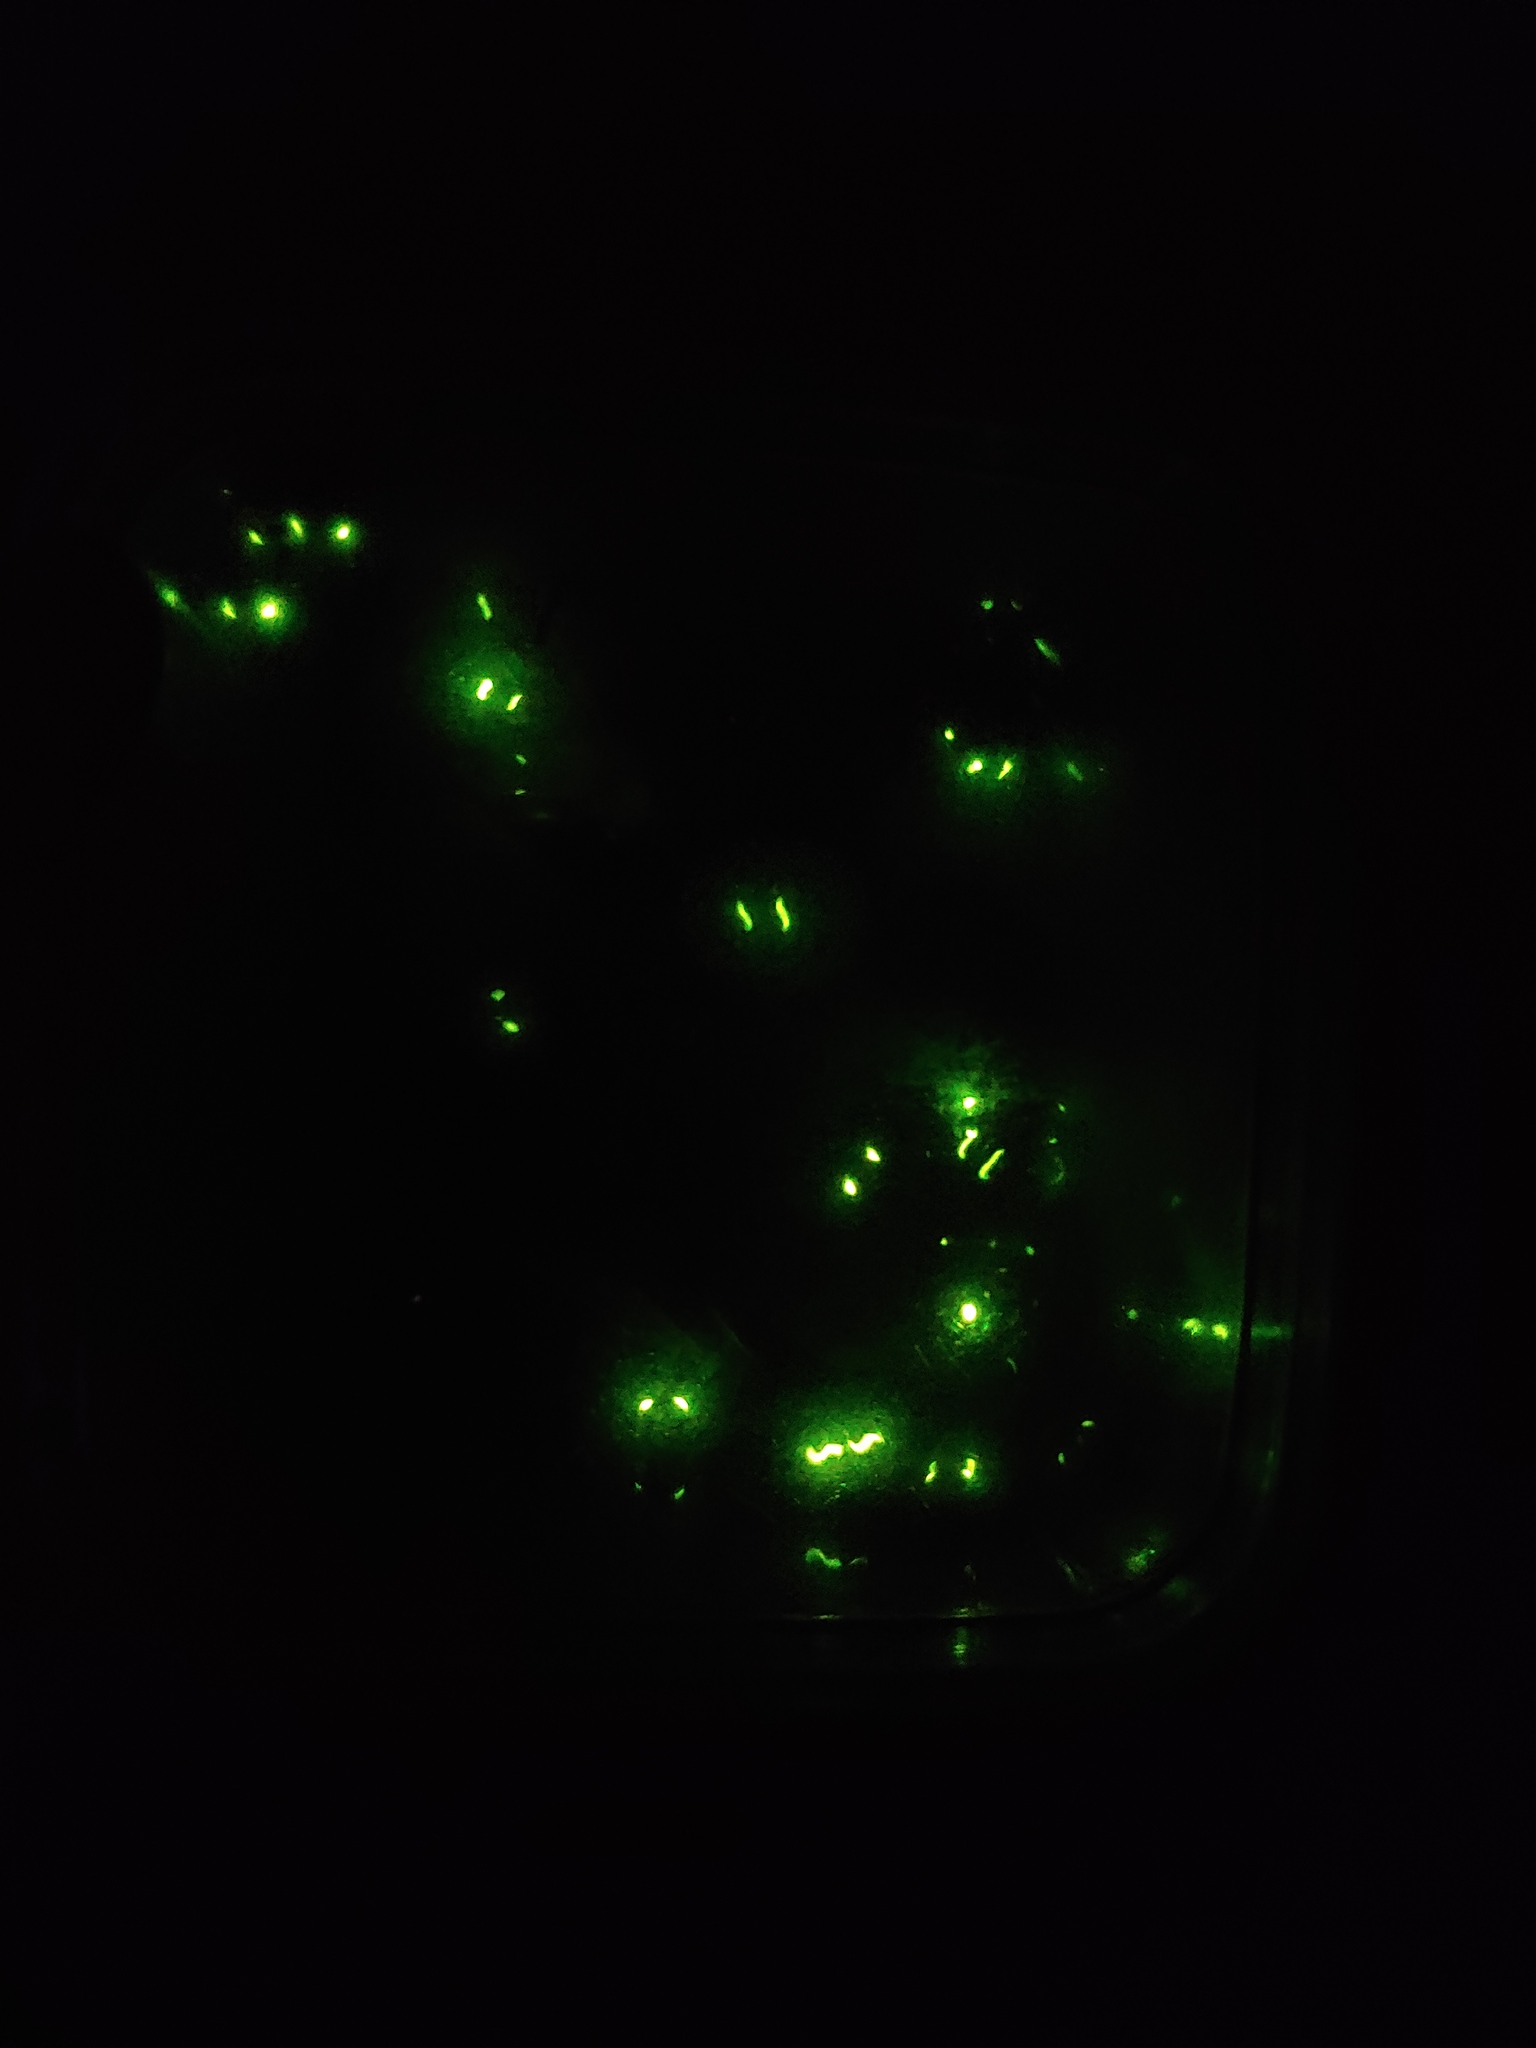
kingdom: Animalia
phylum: Arthropoda
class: Insecta
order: Coleoptera
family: Elateridae
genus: Ignelater
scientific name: Ignelater havaniensis
